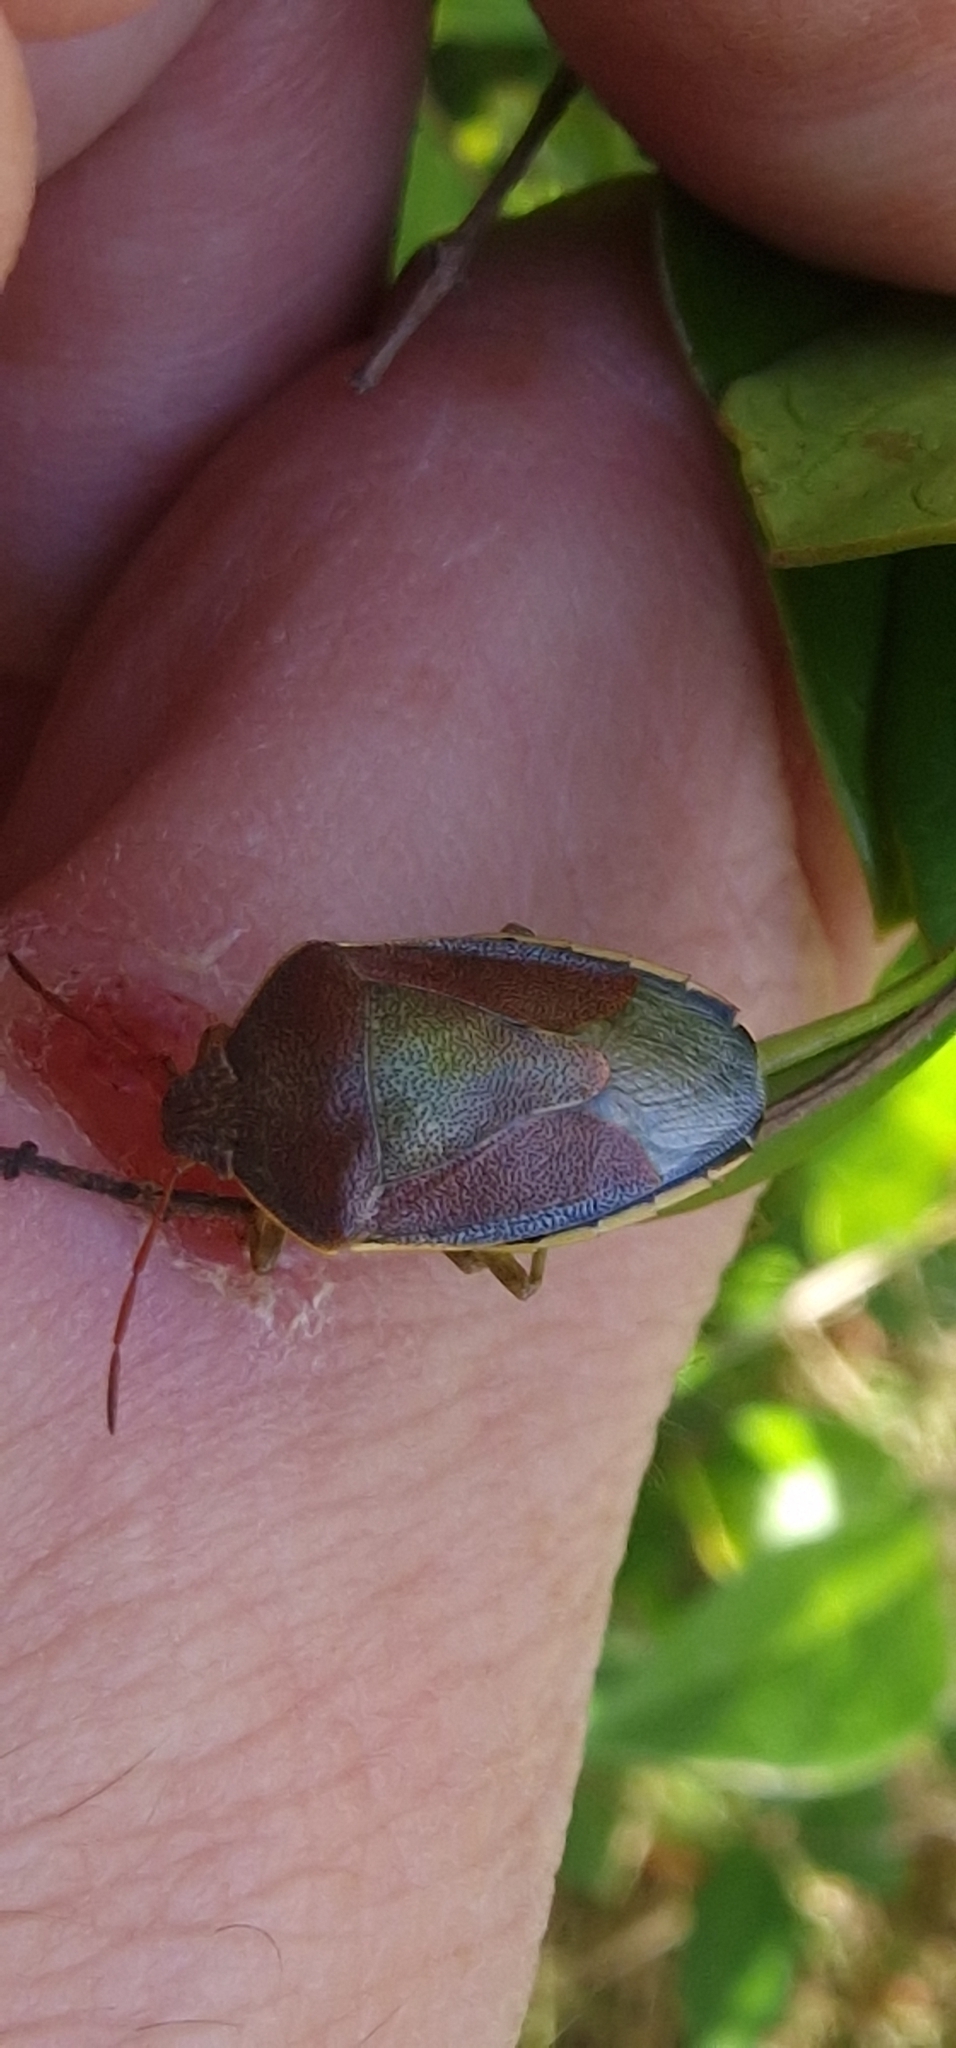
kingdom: Animalia
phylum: Arthropoda
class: Insecta
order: Hemiptera
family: Pentatomidae
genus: Piezodorus
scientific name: Piezodorus lituratus
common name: Stink bug
